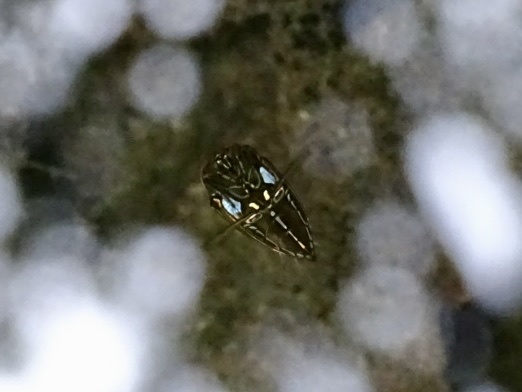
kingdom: Animalia
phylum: Arthropoda
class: Insecta
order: Hemiptera
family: Notonectidae
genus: Enithares
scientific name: Enithares
